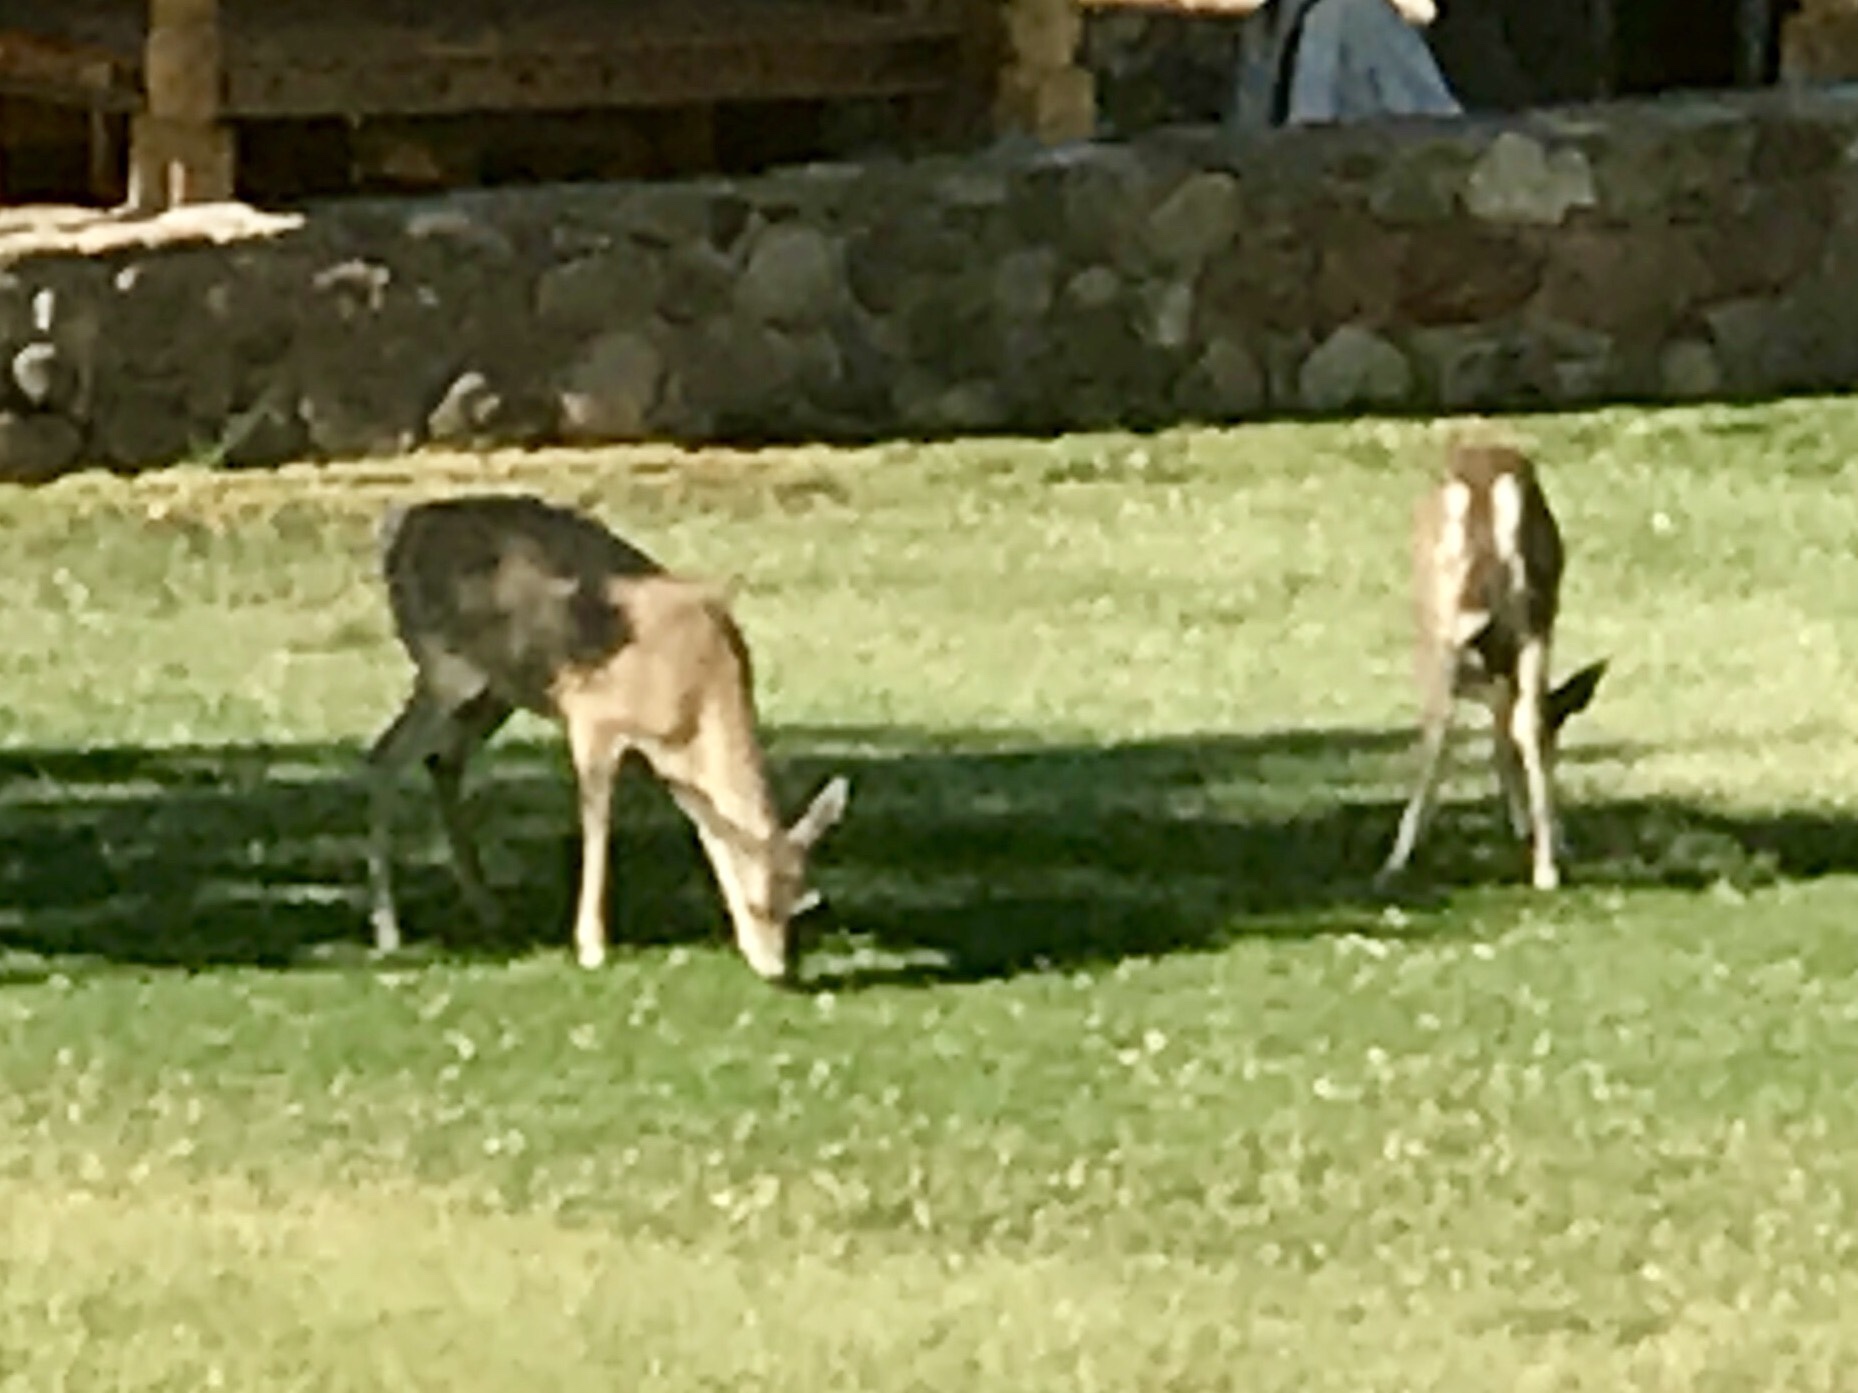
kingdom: Animalia
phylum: Chordata
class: Mammalia
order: Artiodactyla
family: Cervidae
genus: Odocoileus
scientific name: Odocoileus virginianus
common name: White-tailed deer
